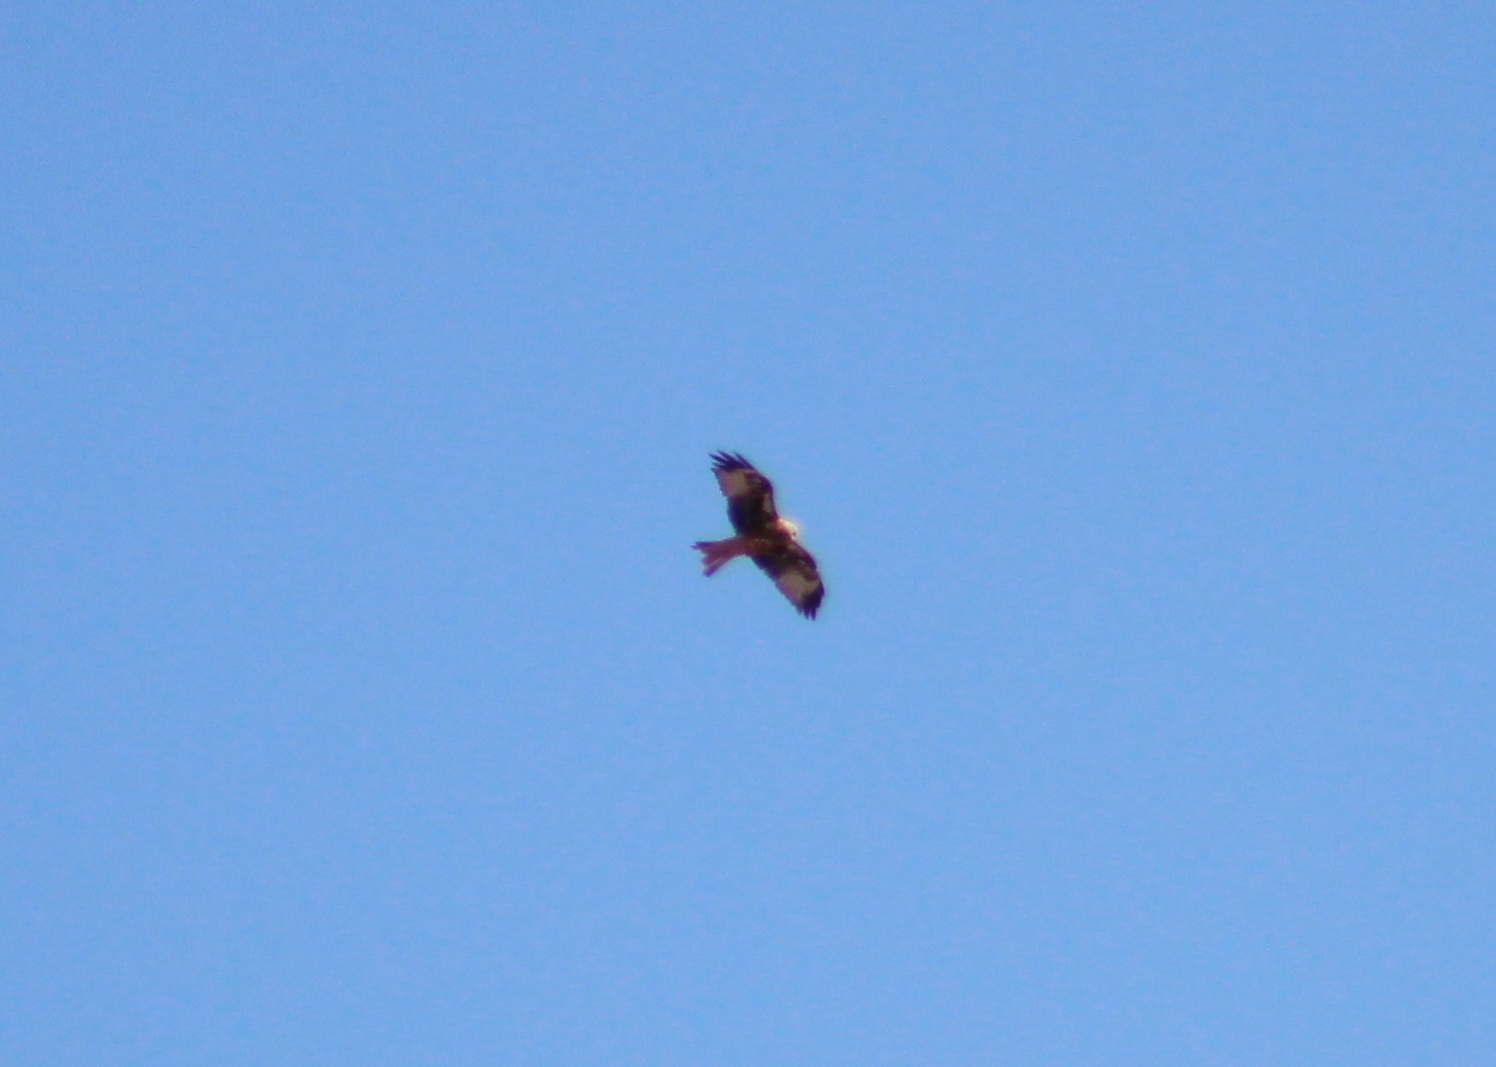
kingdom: Animalia
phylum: Chordata
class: Aves
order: Accipitriformes
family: Accipitridae
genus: Milvus
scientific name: Milvus milvus
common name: Red kite
